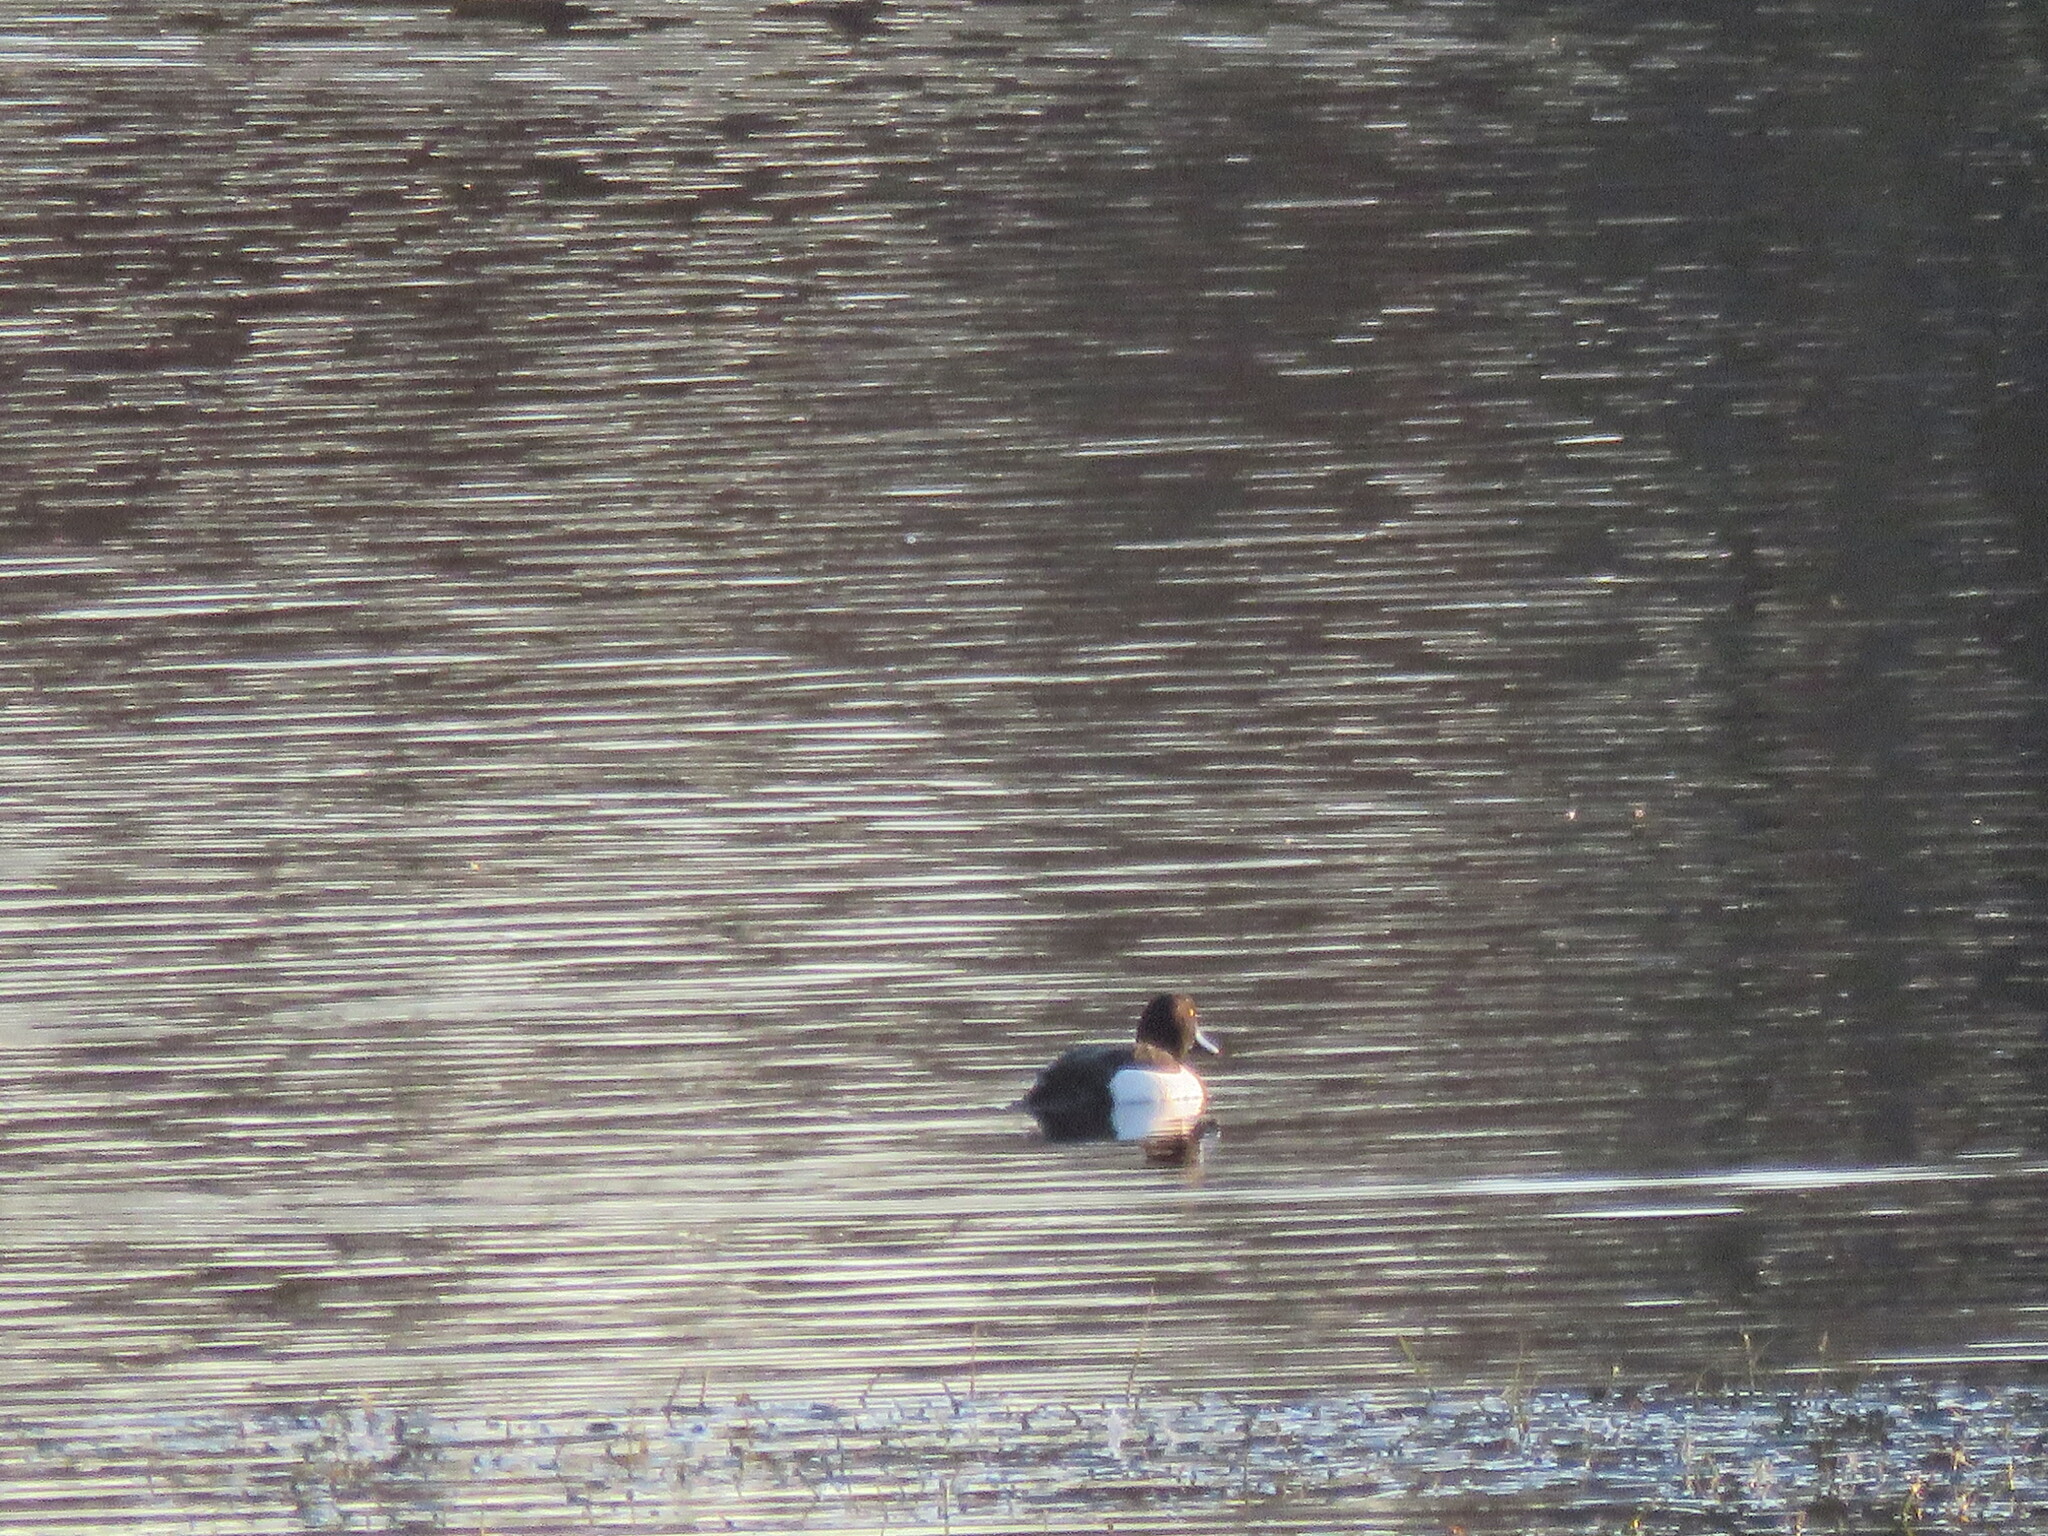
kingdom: Animalia
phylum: Chordata
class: Aves
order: Anseriformes
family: Anatidae
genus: Aythya
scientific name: Aythya fuligula
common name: Tufted duck
